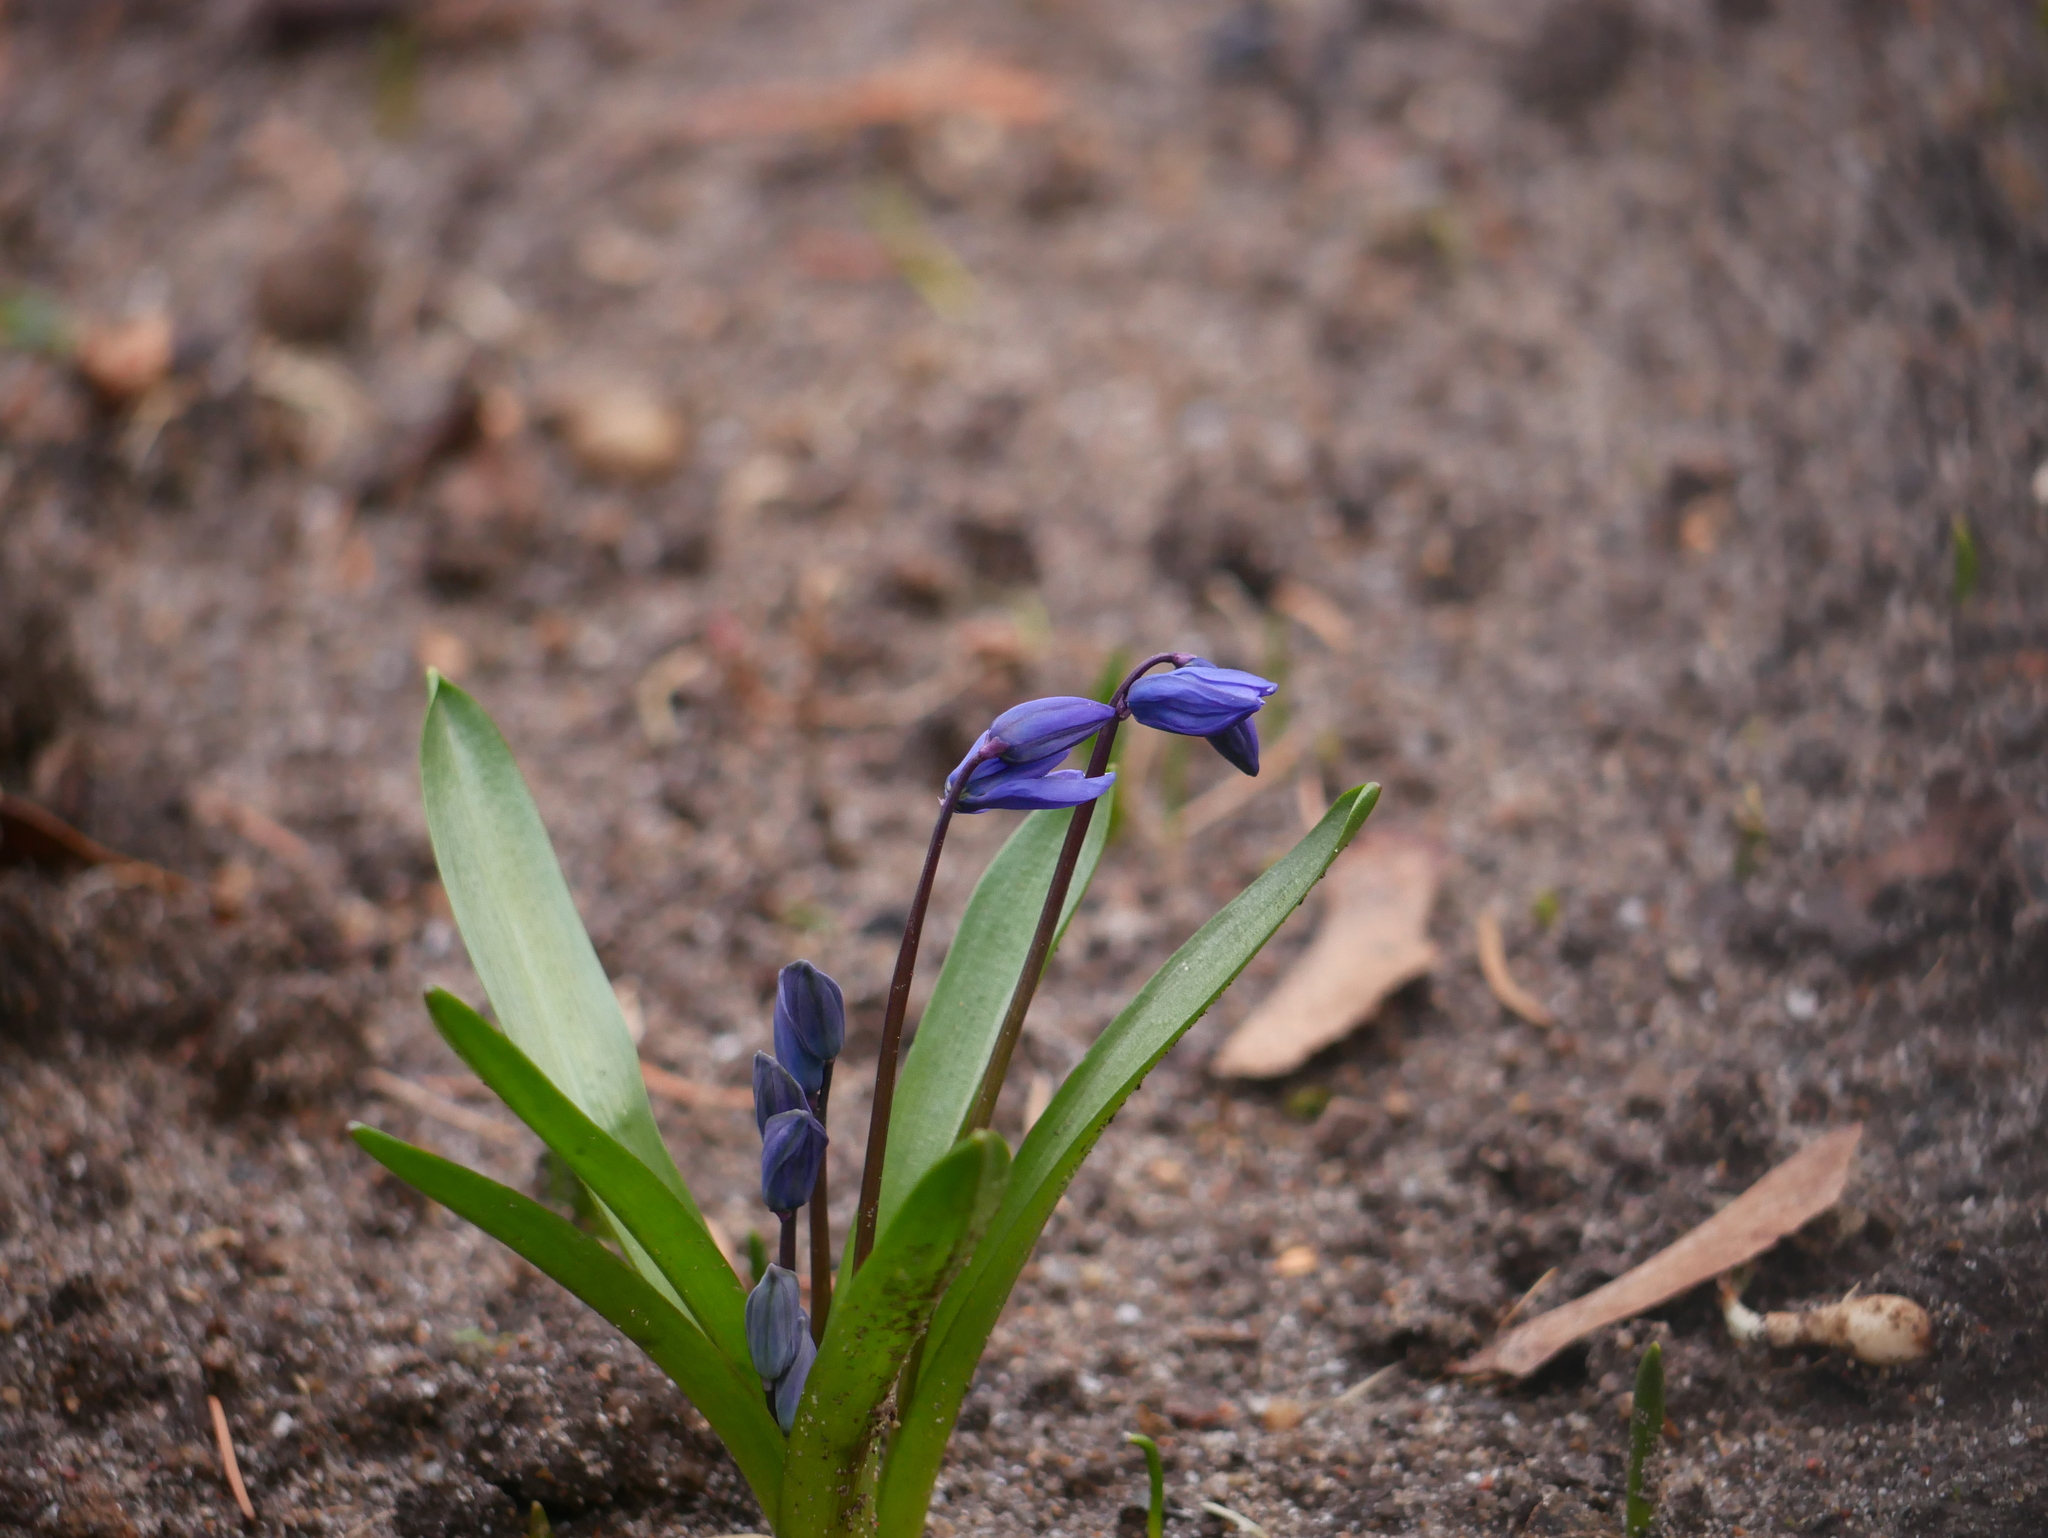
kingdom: Plantae
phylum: Tracheophyta
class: Liliopsida
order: Asparagales
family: Asparagaceae
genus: Scilla
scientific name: Scilla siberica
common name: Siberian squill
